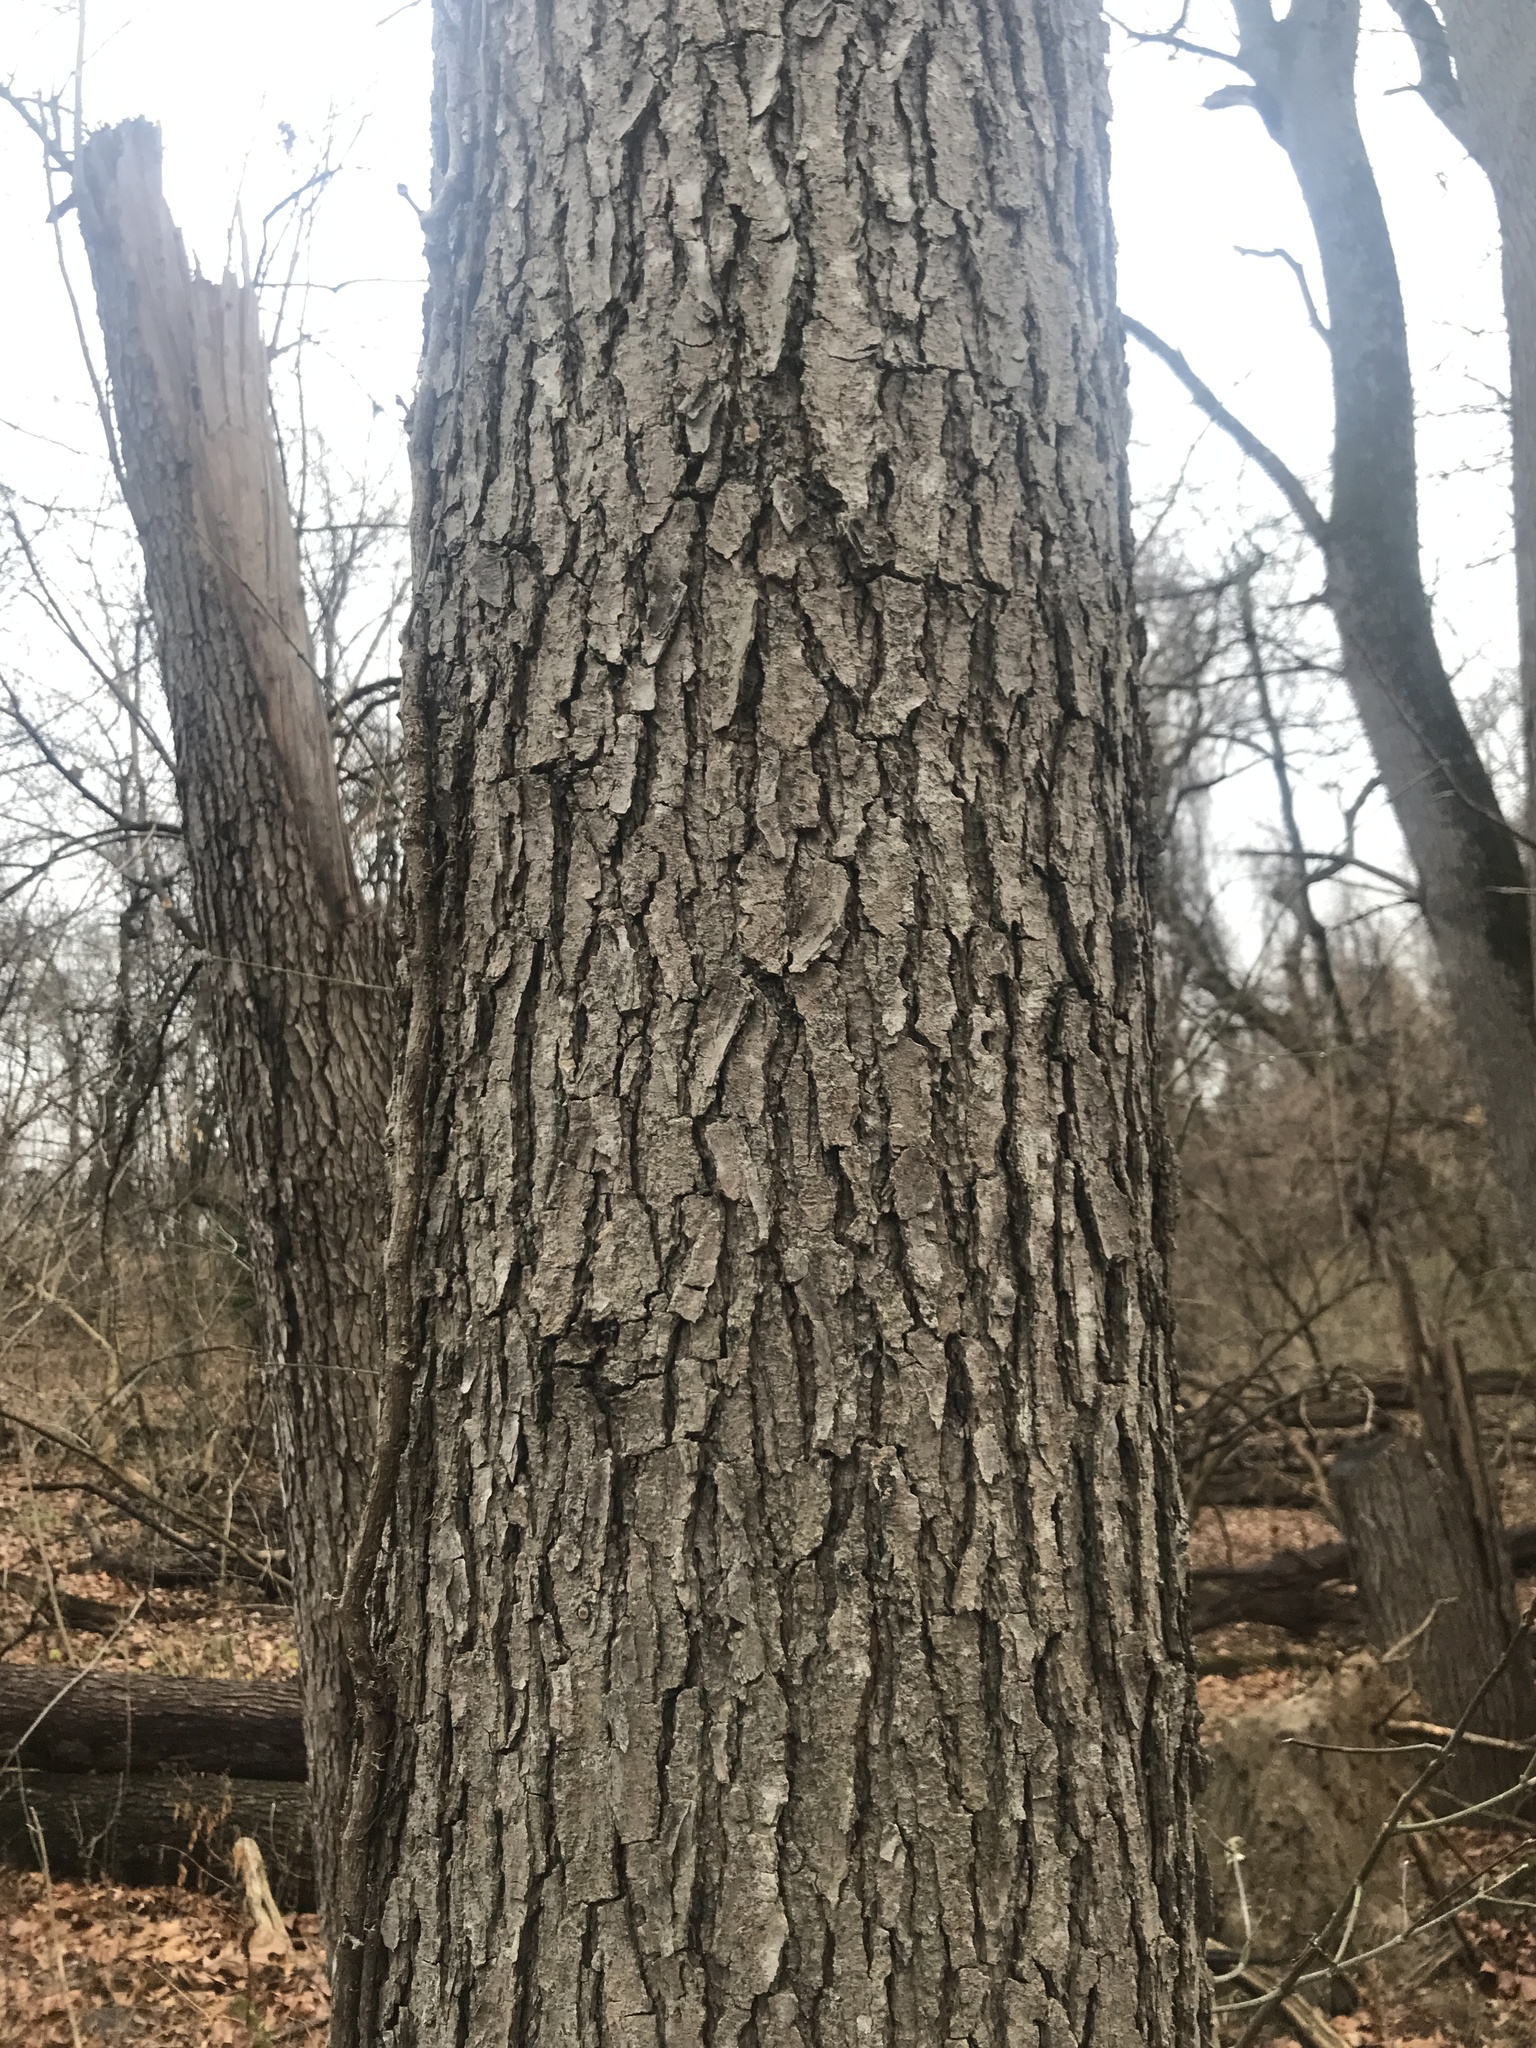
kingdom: Plantae
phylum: Tracheophyta
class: Magnoliopsida
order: Fabales
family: Fabaceae
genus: Gymnocladus
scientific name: Gymnocladus dioicus
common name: Kentucky coffee-tree
